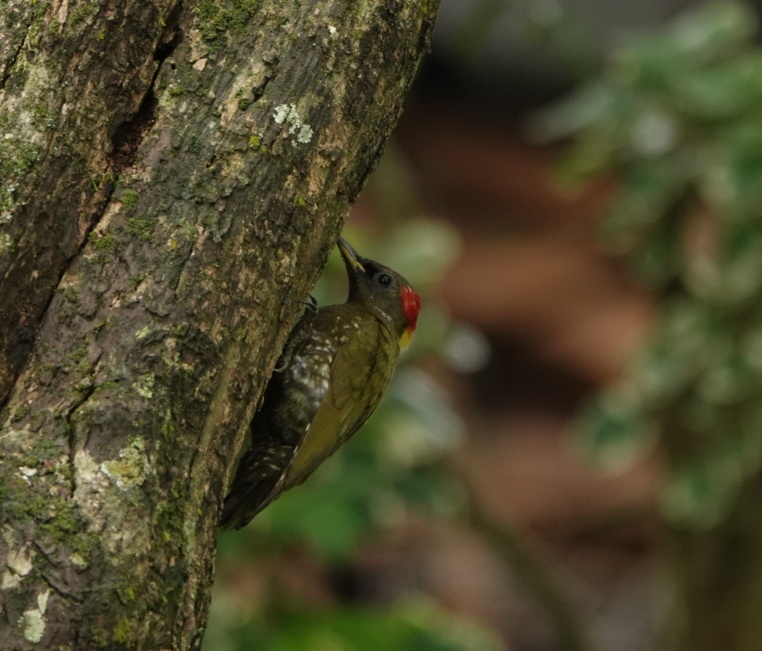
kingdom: Animalia
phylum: Chordata
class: Aves
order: Piciformes
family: Picidae
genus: Picus
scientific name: Picus chlorolophus
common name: Lesser yellownape
